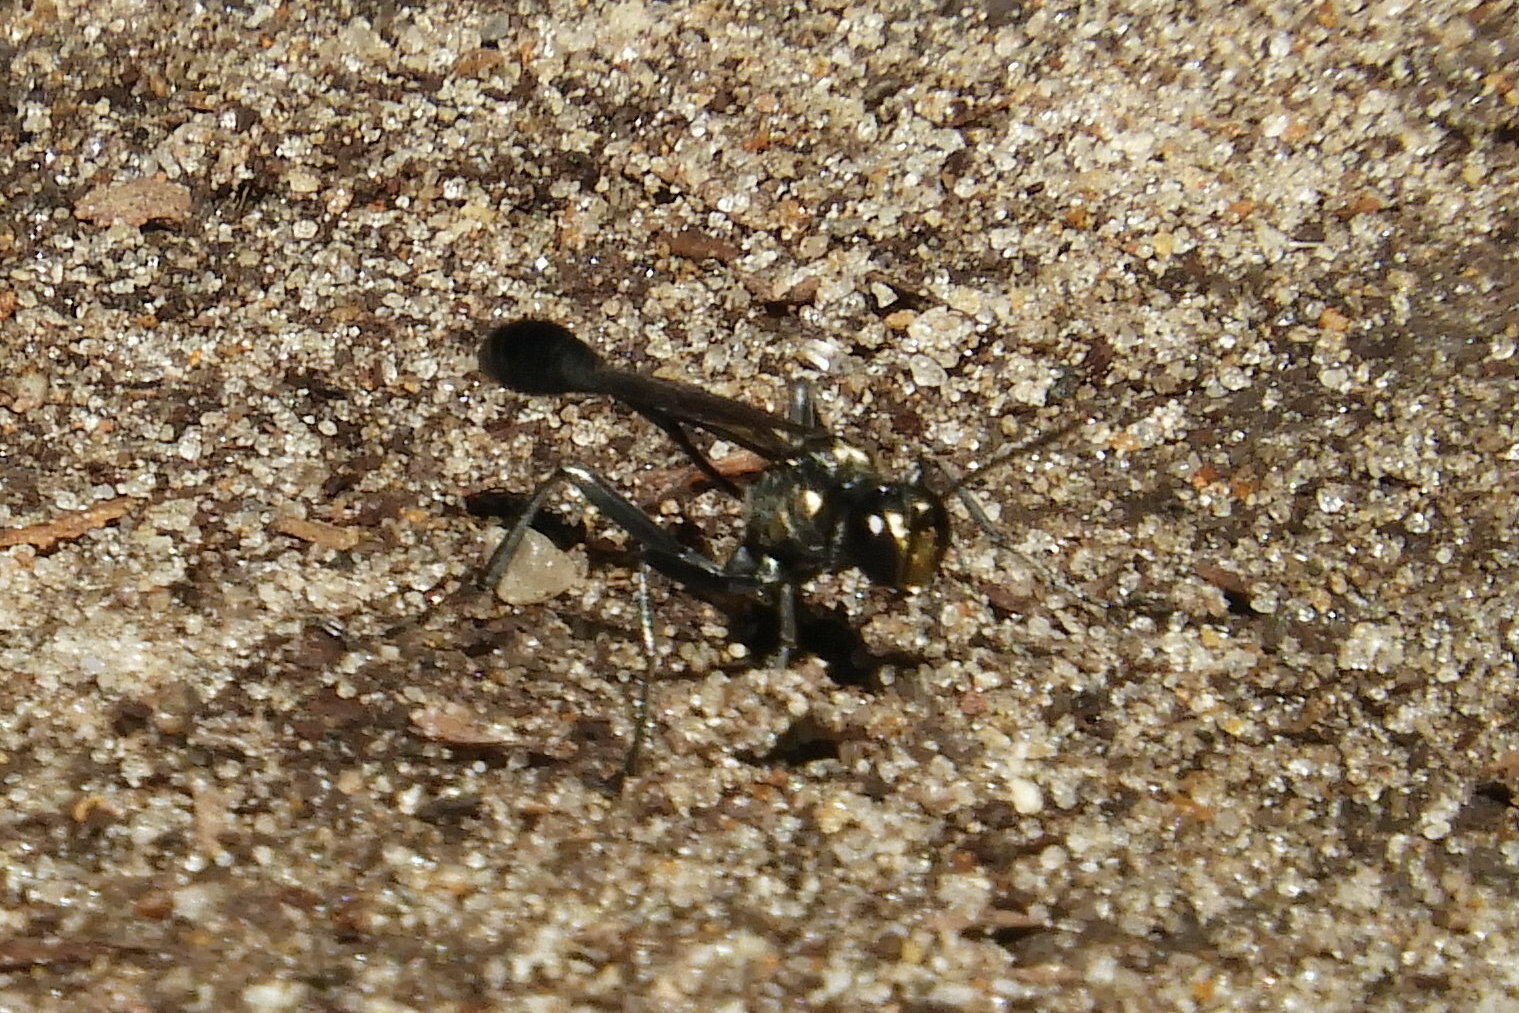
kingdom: Animalia
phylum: Arthropoda
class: Insecta
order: Hymenoptera
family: Sphecidae
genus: Eremnophila
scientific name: Eremnophila aureonotata
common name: Gold-marked thread-waisted wasp
